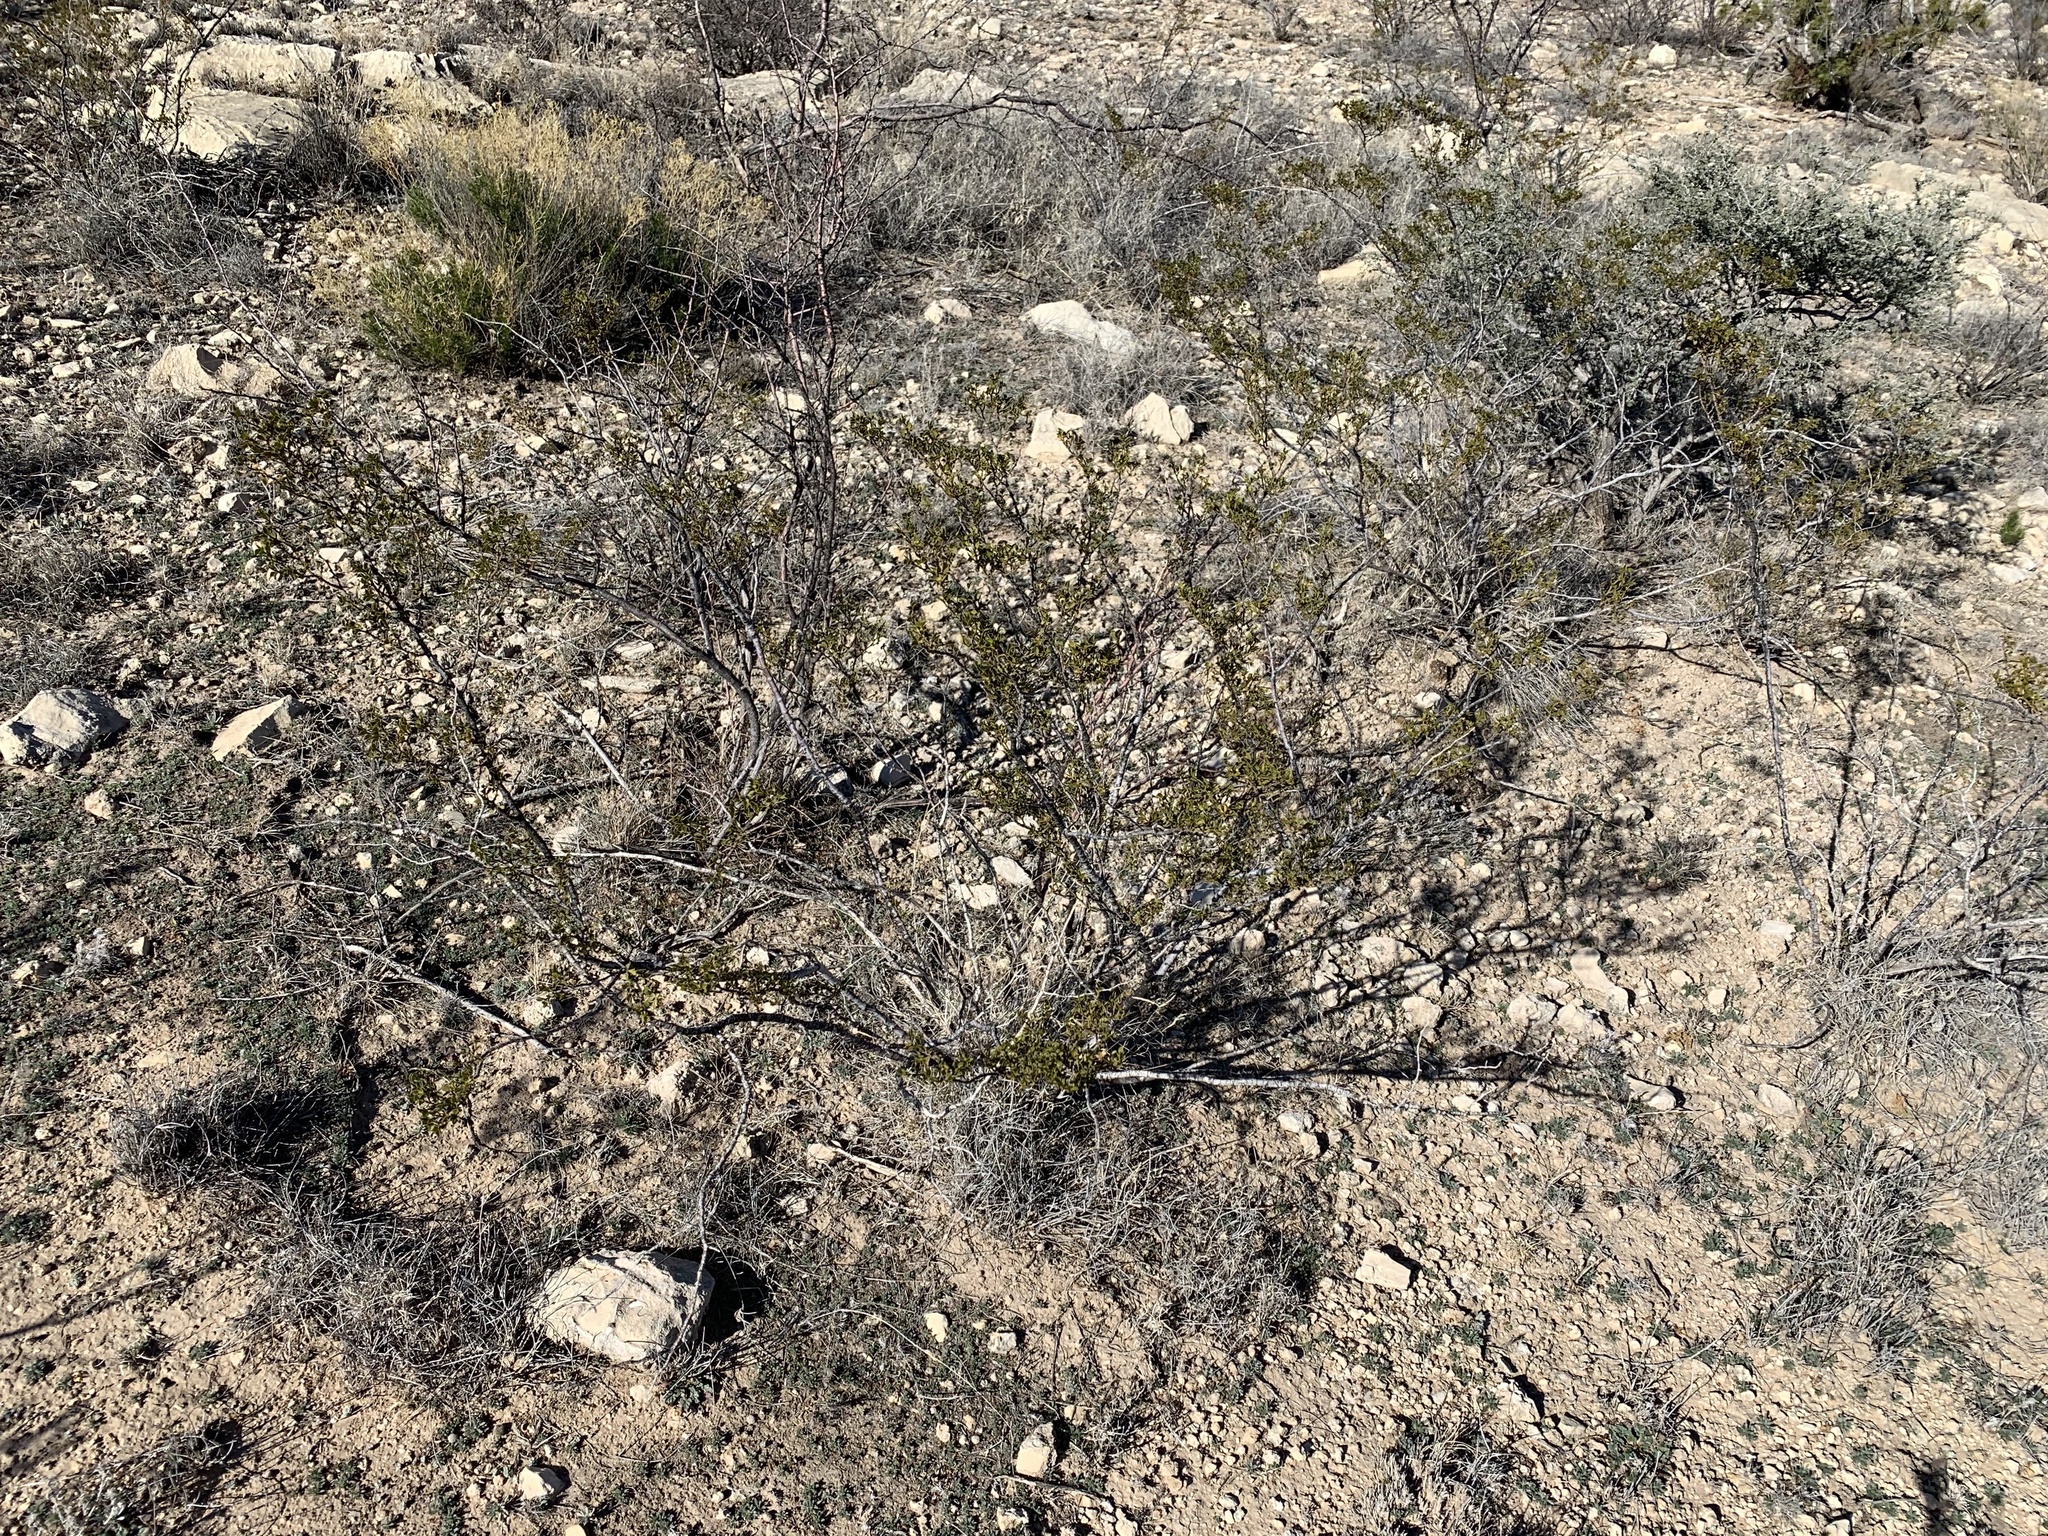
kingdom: Plantae
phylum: Tracheophyta
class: Magnoliopsida
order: Zygophyllales
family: Zygophyllaceae
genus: Larrea
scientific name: Larrea tridentata
